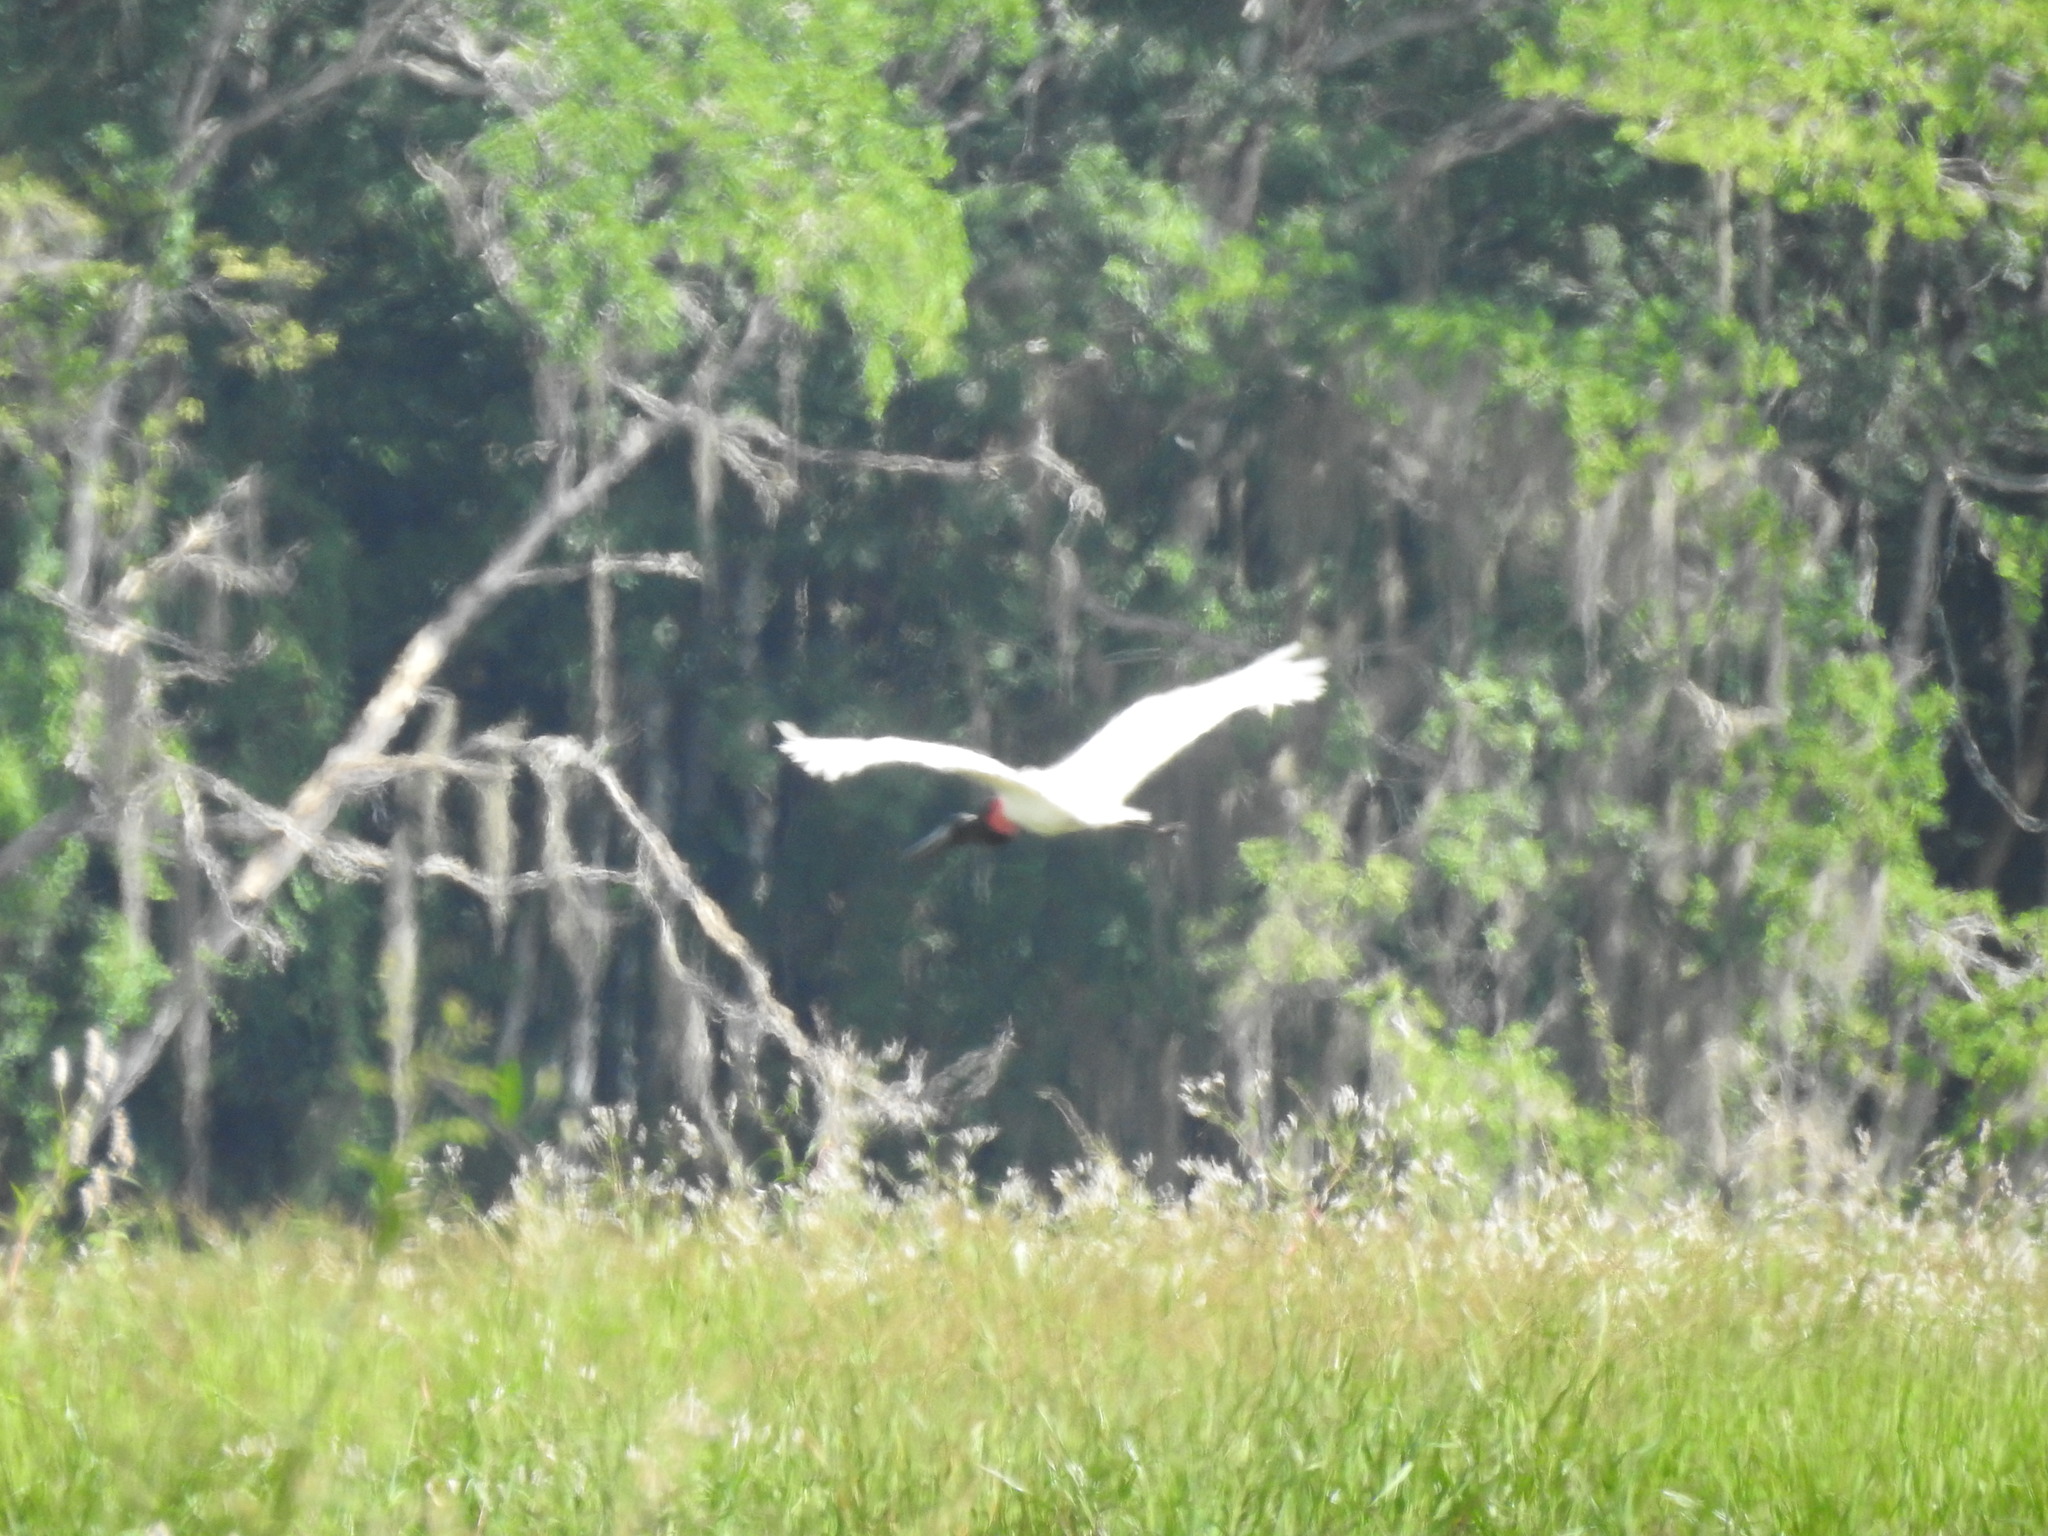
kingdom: Animalia
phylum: Chordata
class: Aves
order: Ciconiiformes
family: Ciconiidae
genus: Jabiru
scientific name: Jabiru mycteria
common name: Jabiru
